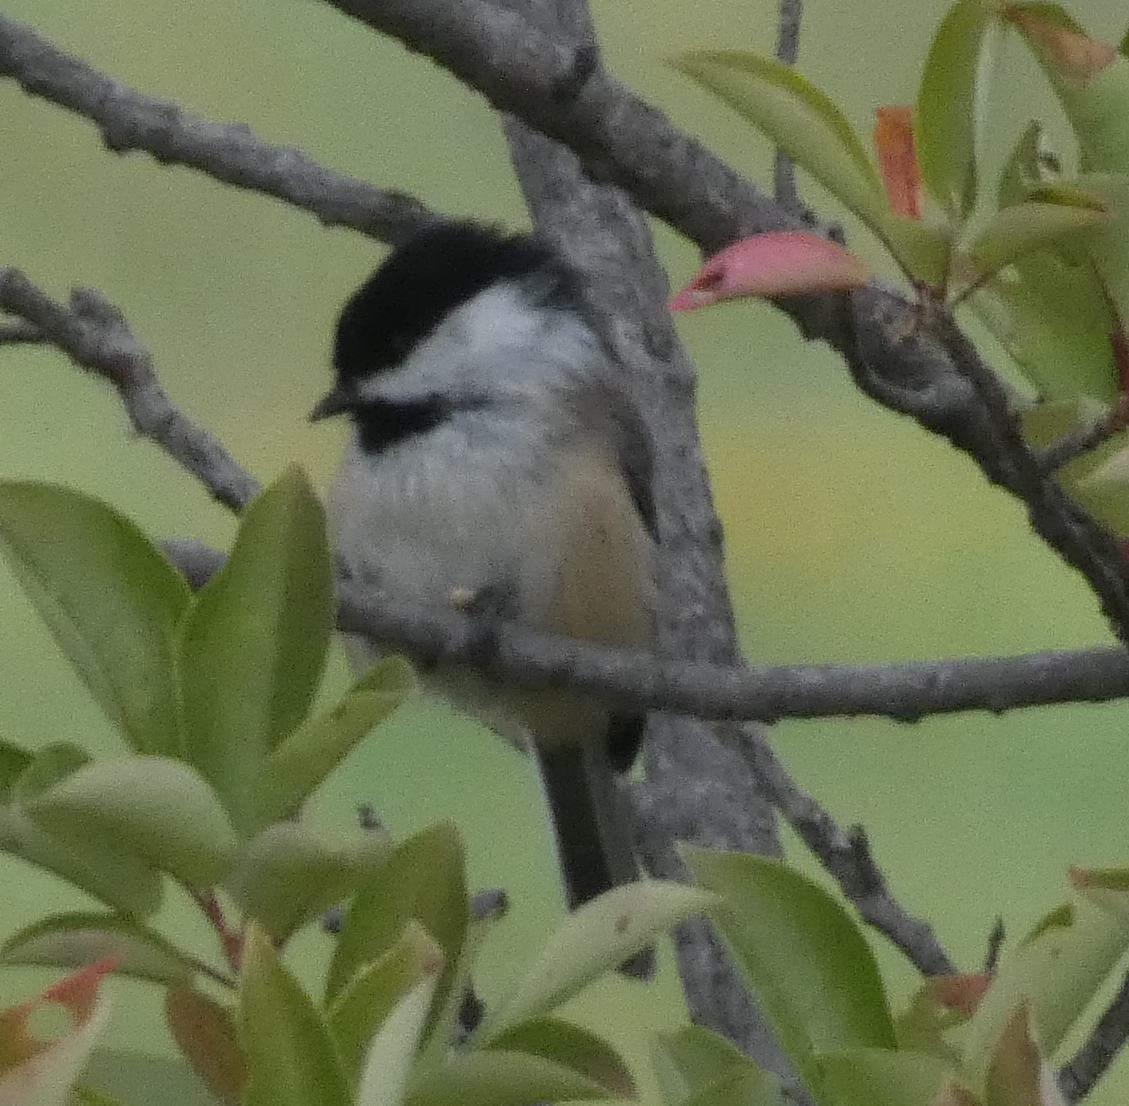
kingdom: Animalia
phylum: Chordata
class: Aves
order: Passeriformes
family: Paridae
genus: Poecile
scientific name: Poecile atricapillus
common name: Black-capped chickadee
